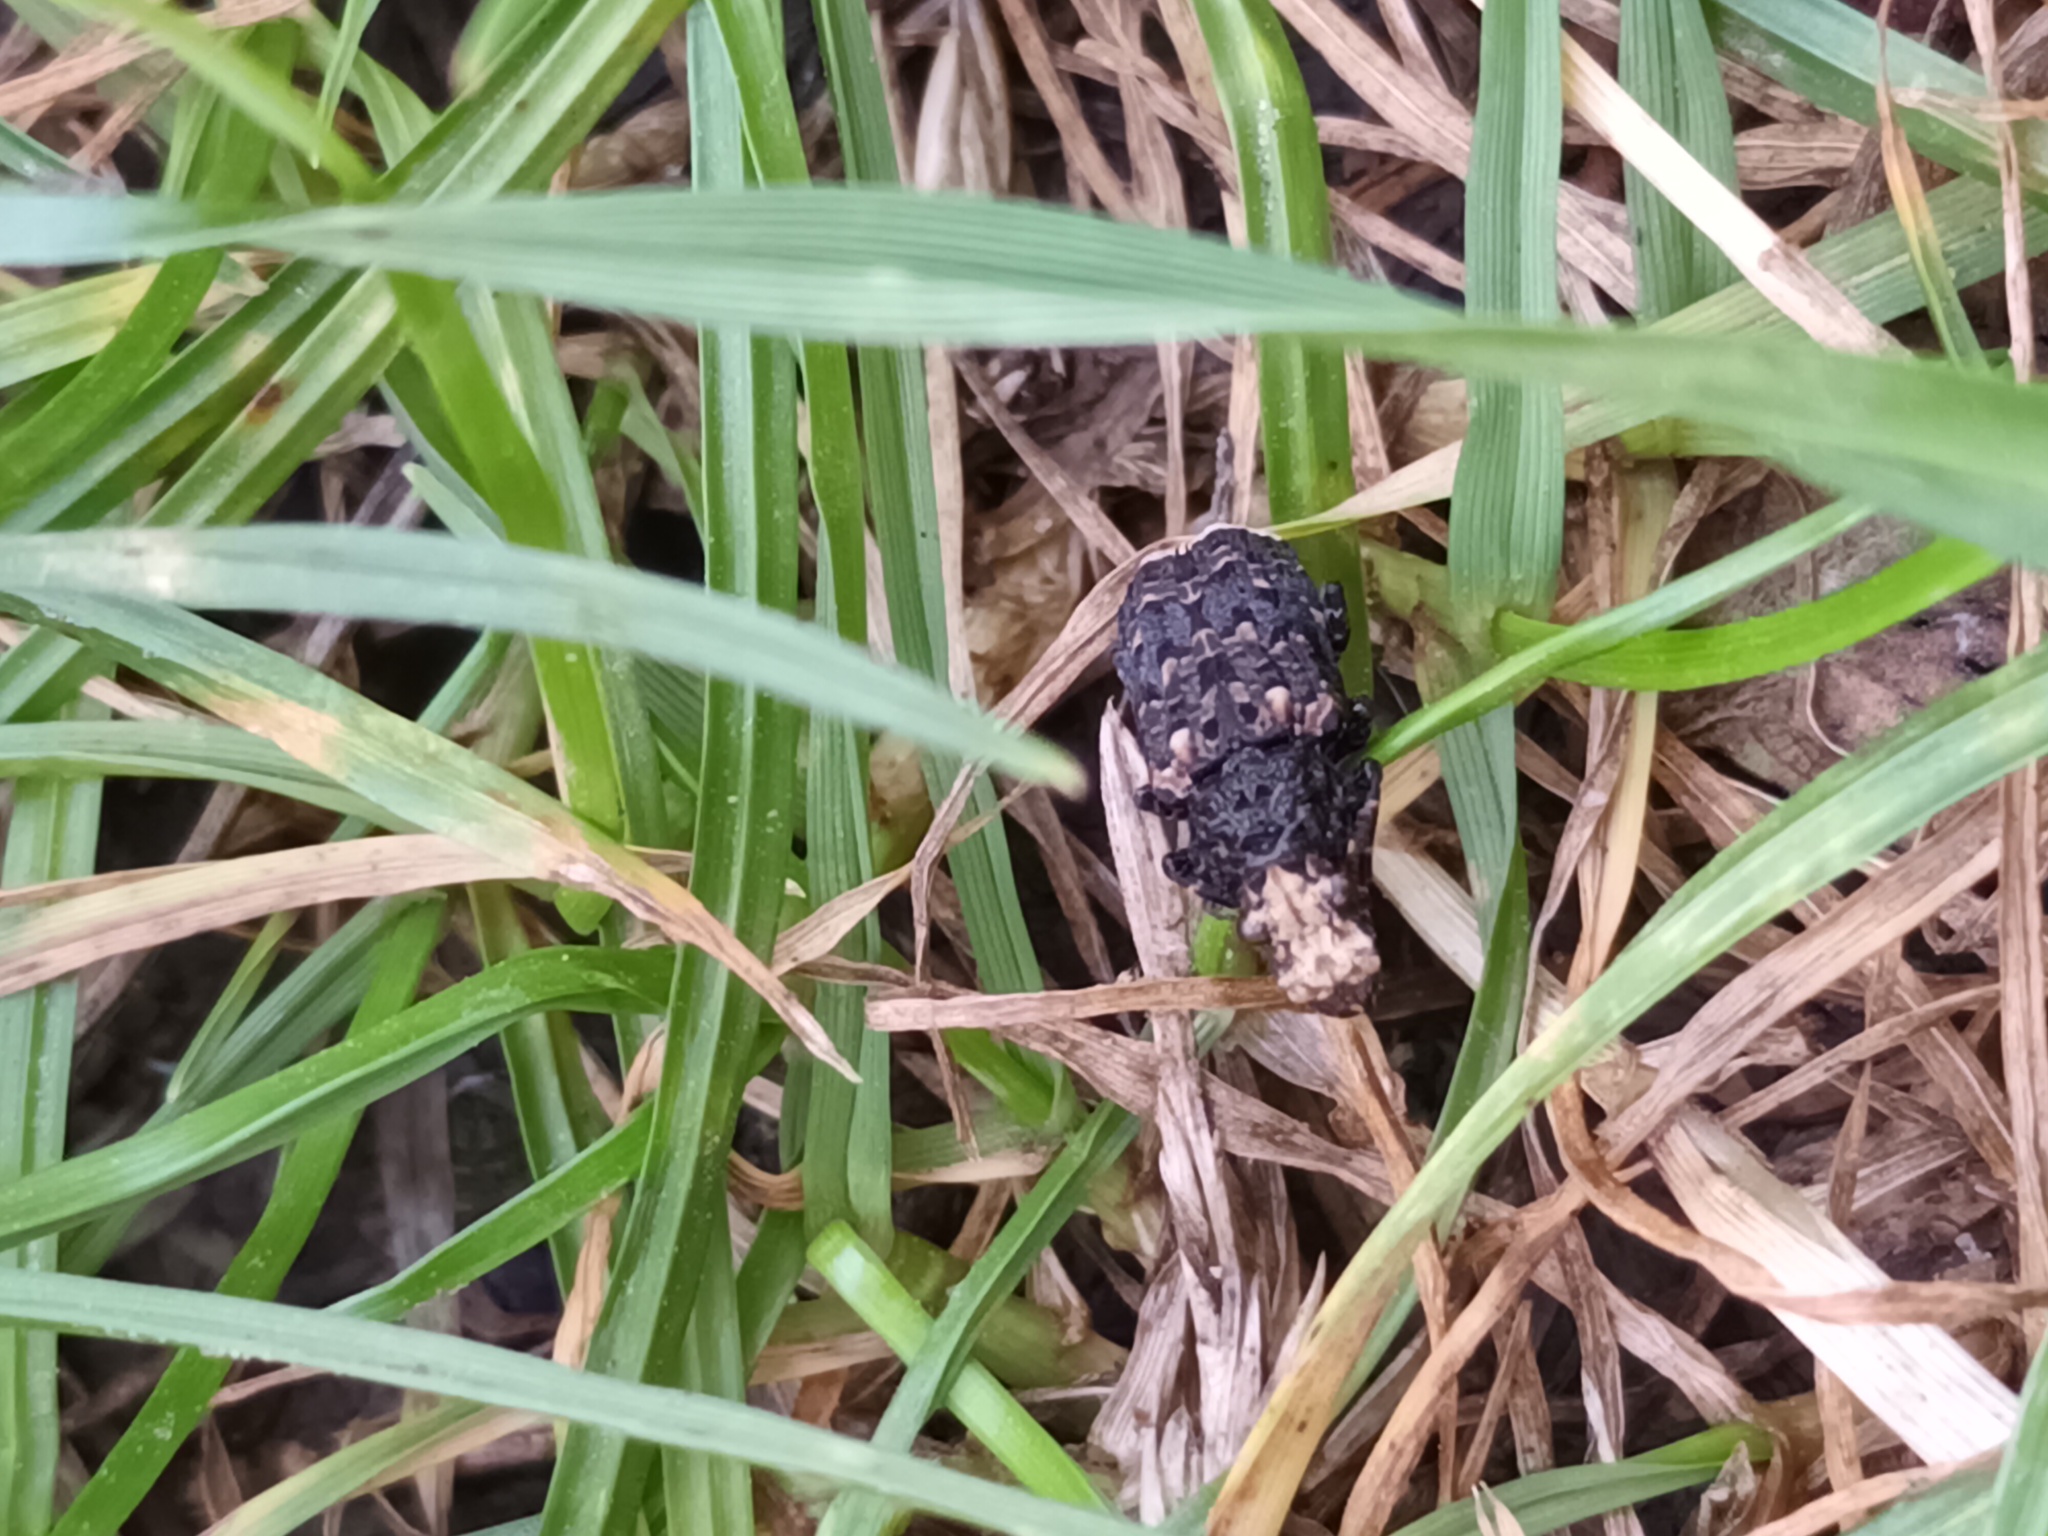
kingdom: Animalia
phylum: Arthropoda
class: Insecta
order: Coleoptera
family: Anthribidae
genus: Platyrhinus
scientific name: Platyrhinus resinosus
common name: Cramp-ball fungus weevil
